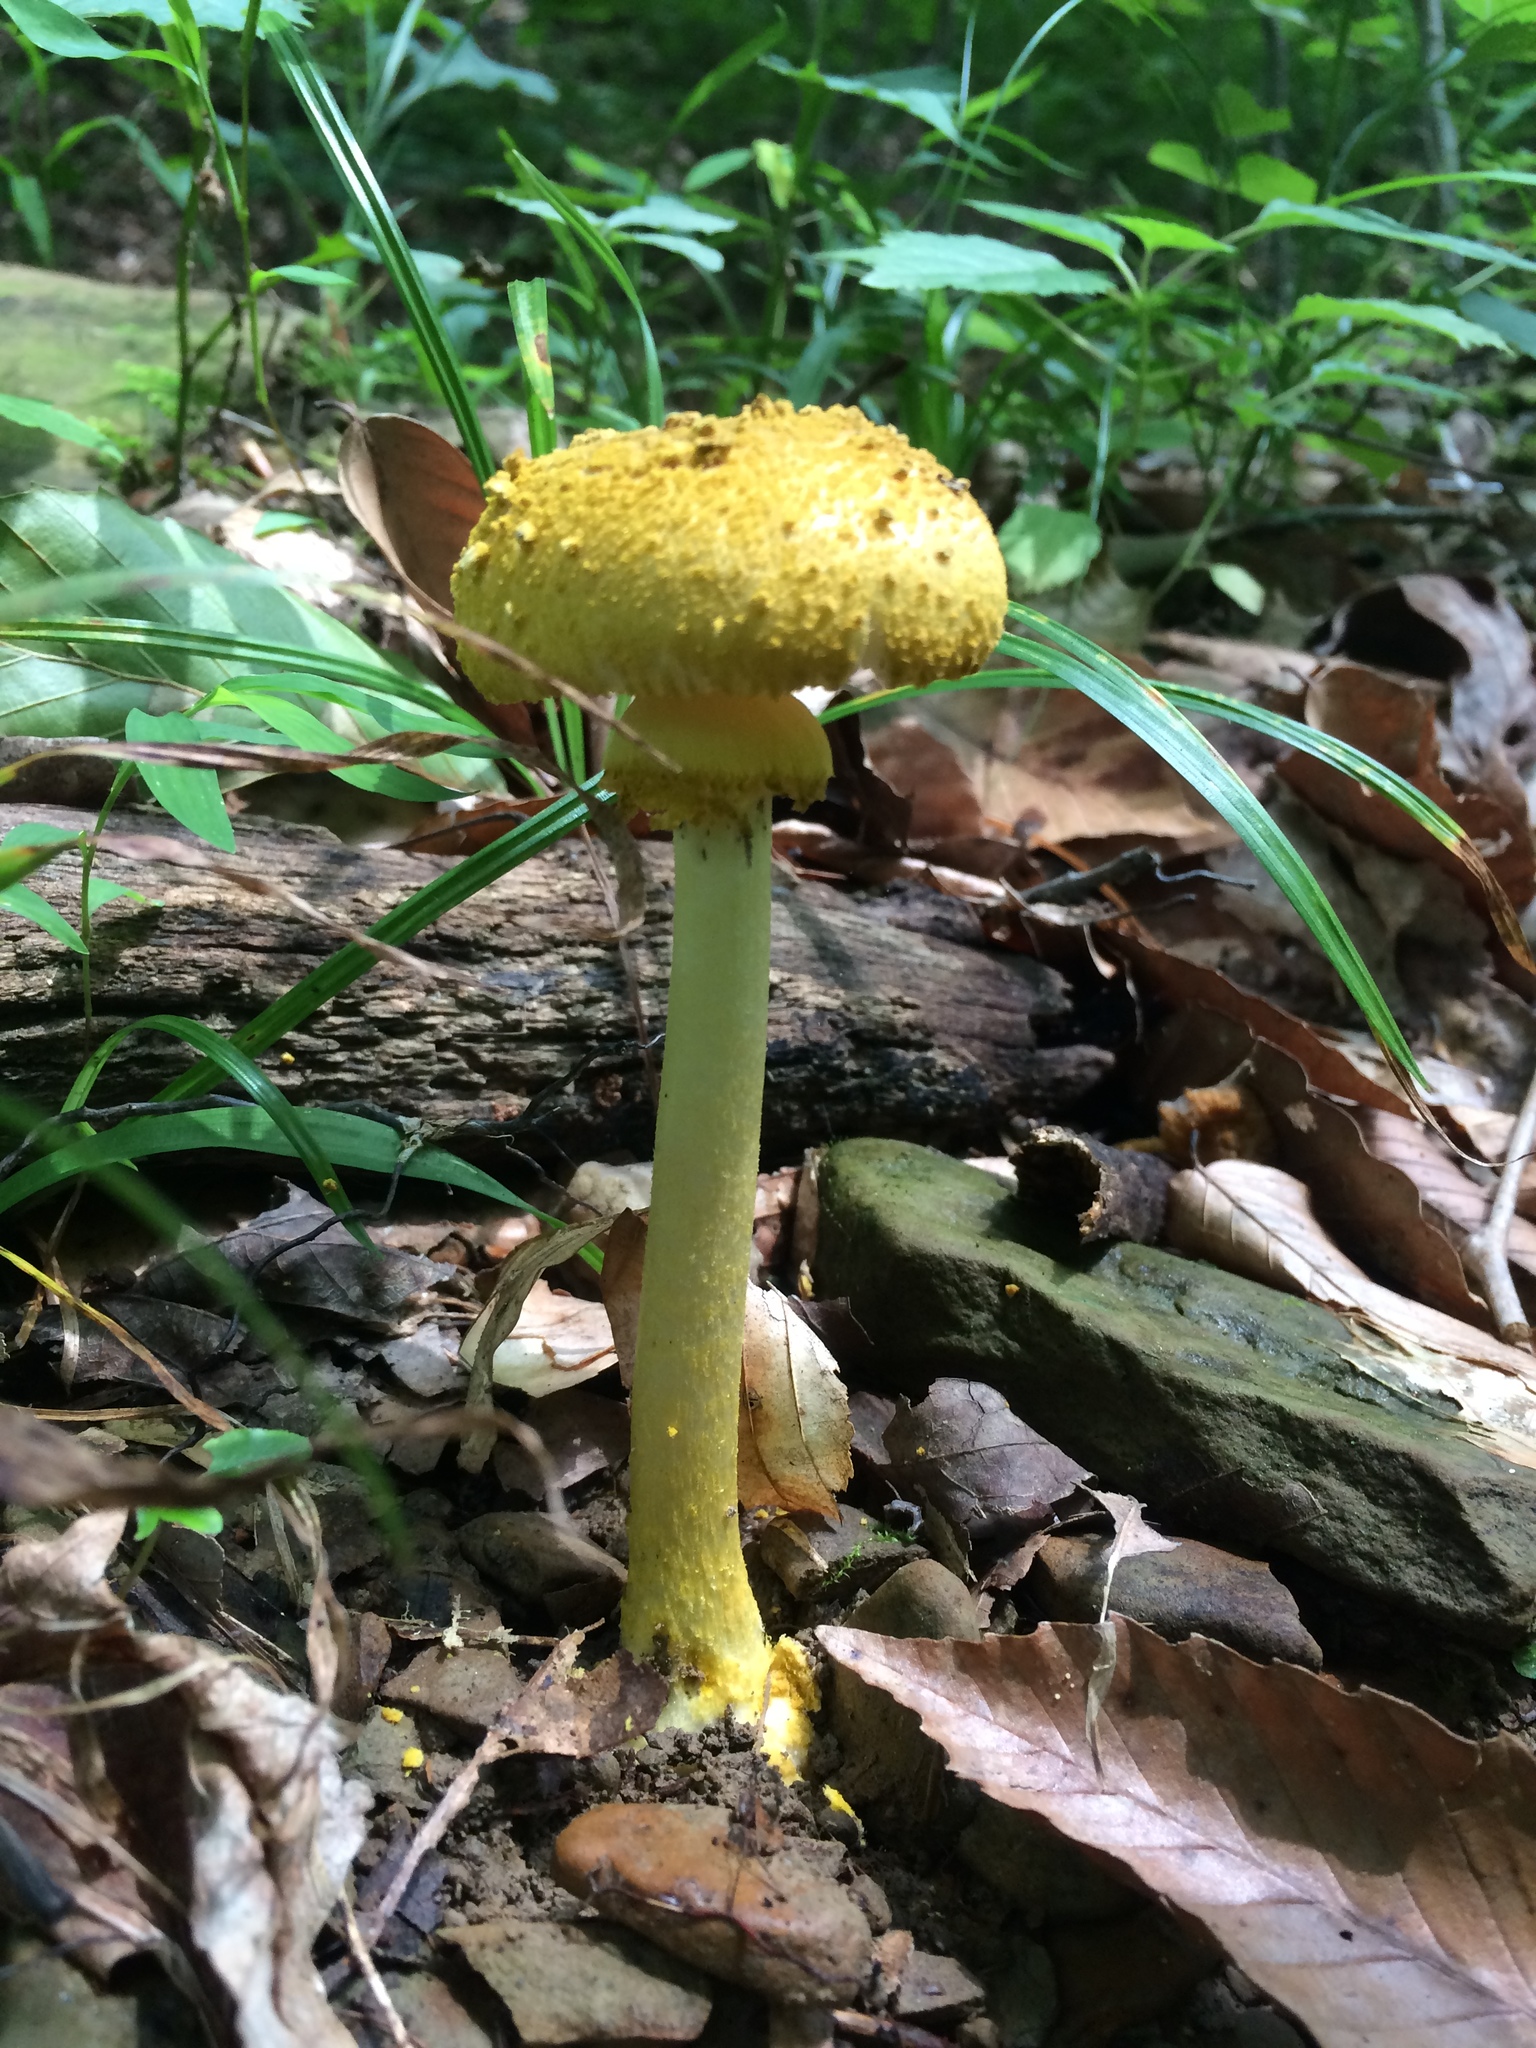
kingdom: Fungi
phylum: Basidiomycota
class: Agaricomycetes
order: Agaricales
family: Amanitaceae
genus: Amanita
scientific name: Amanita levistriata
